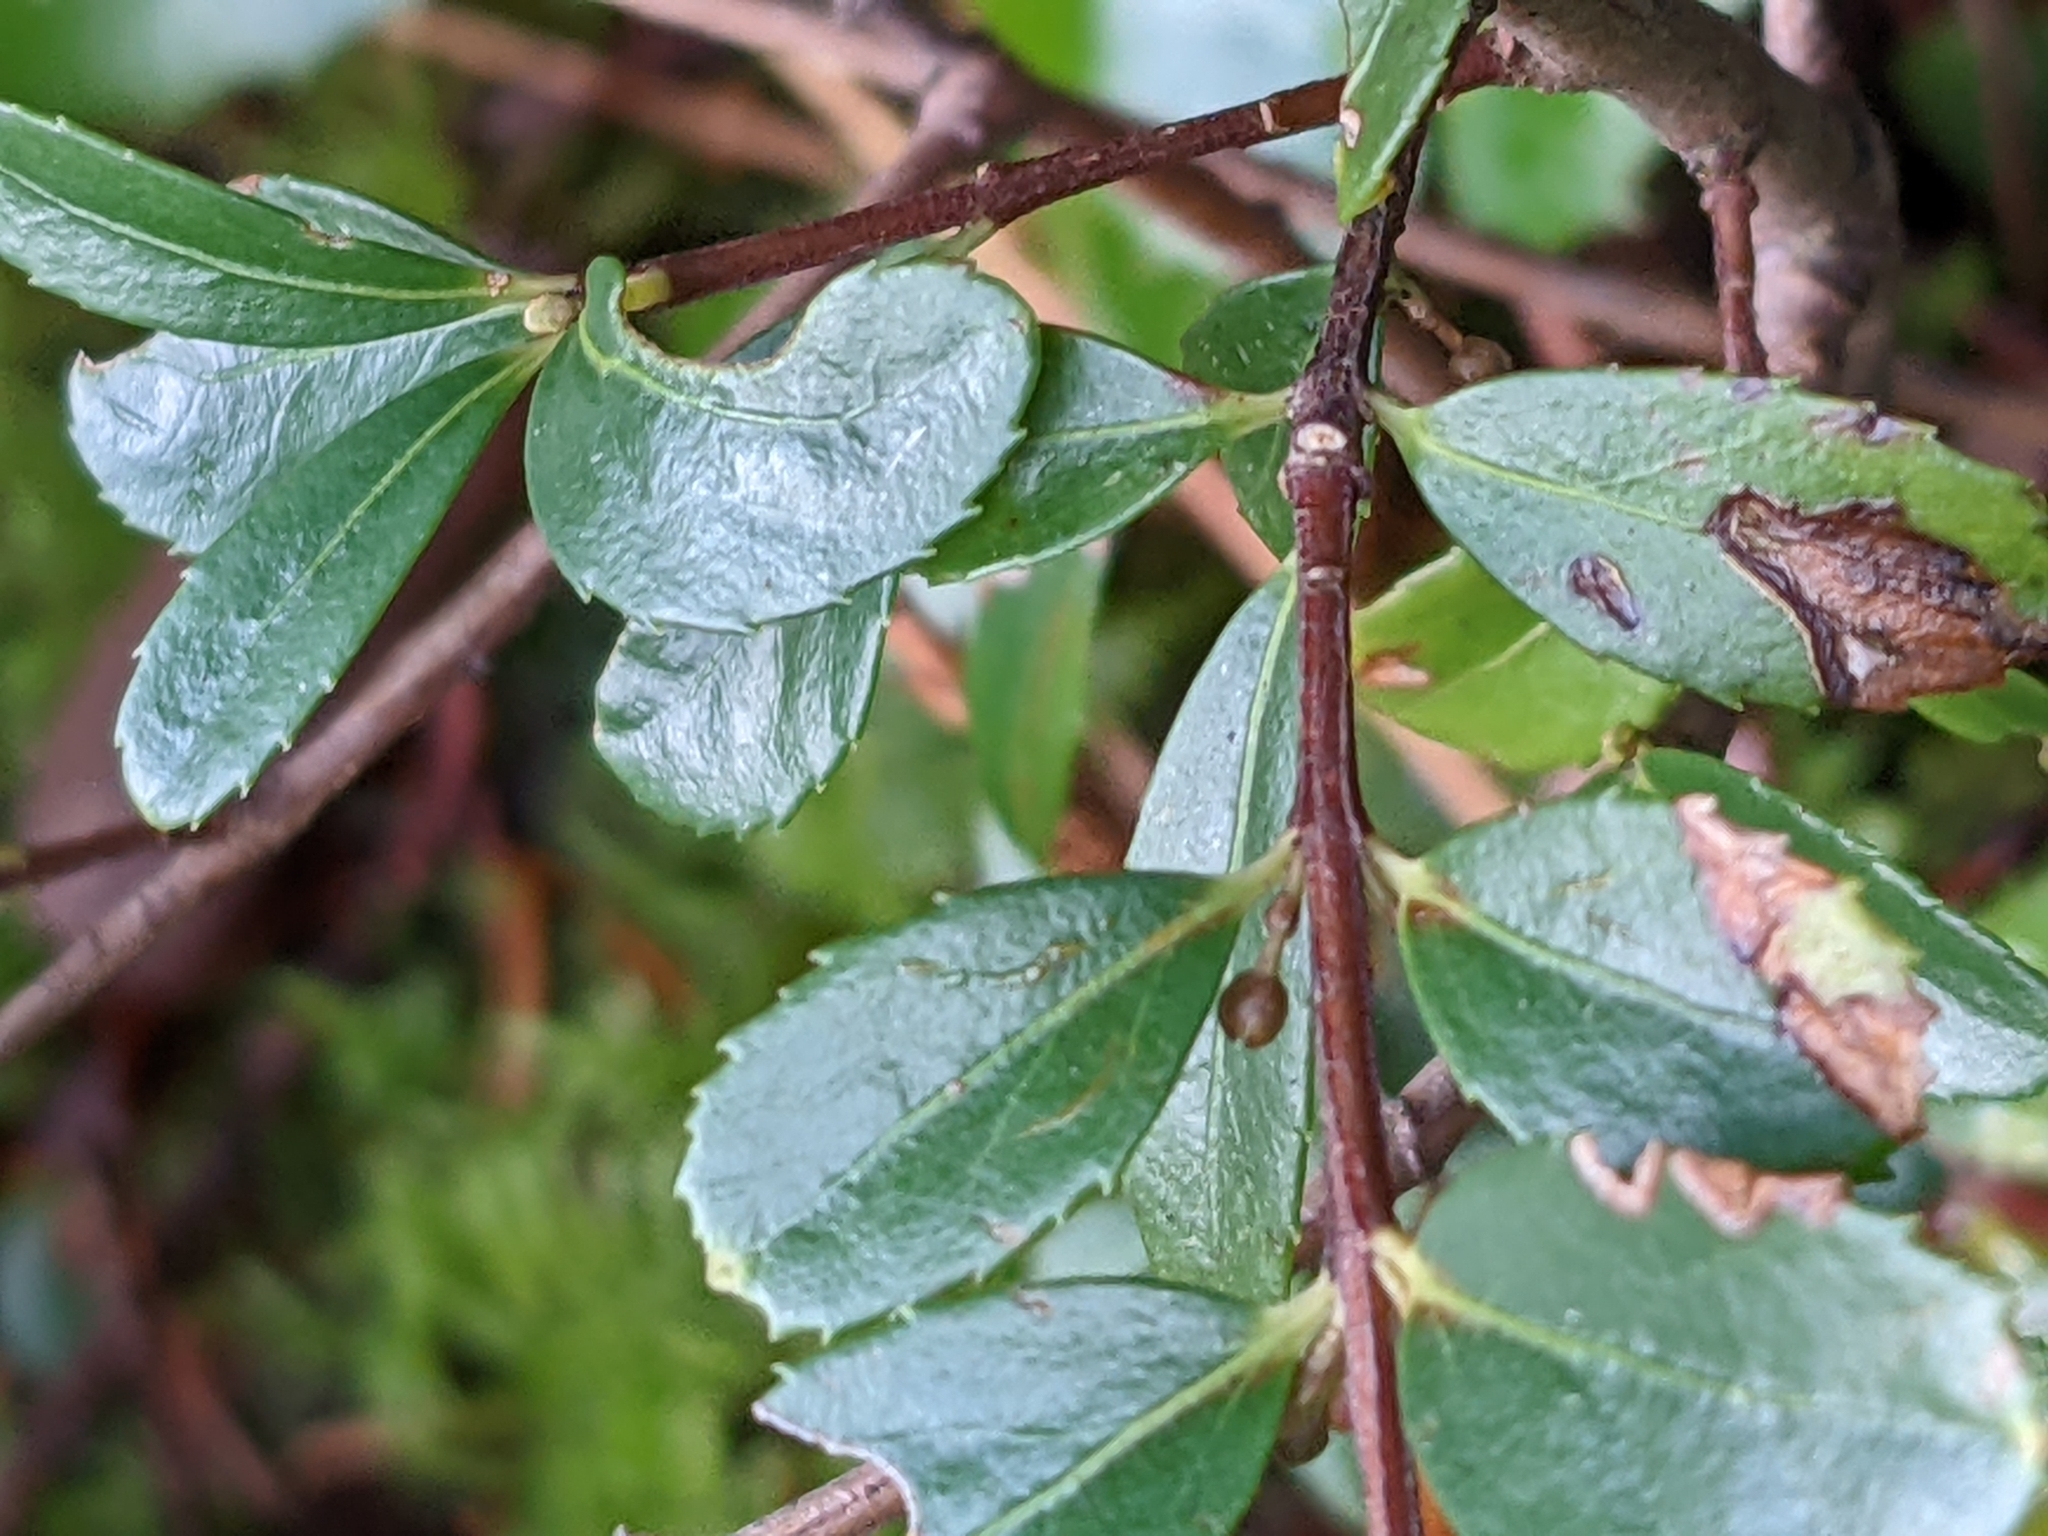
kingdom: Plantae
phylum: Tracheophyta
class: Magnoliopsida
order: Celastrales
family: Celastraceae
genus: Paxistima
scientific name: Paxistima myrsinites
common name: Mountain-lover
